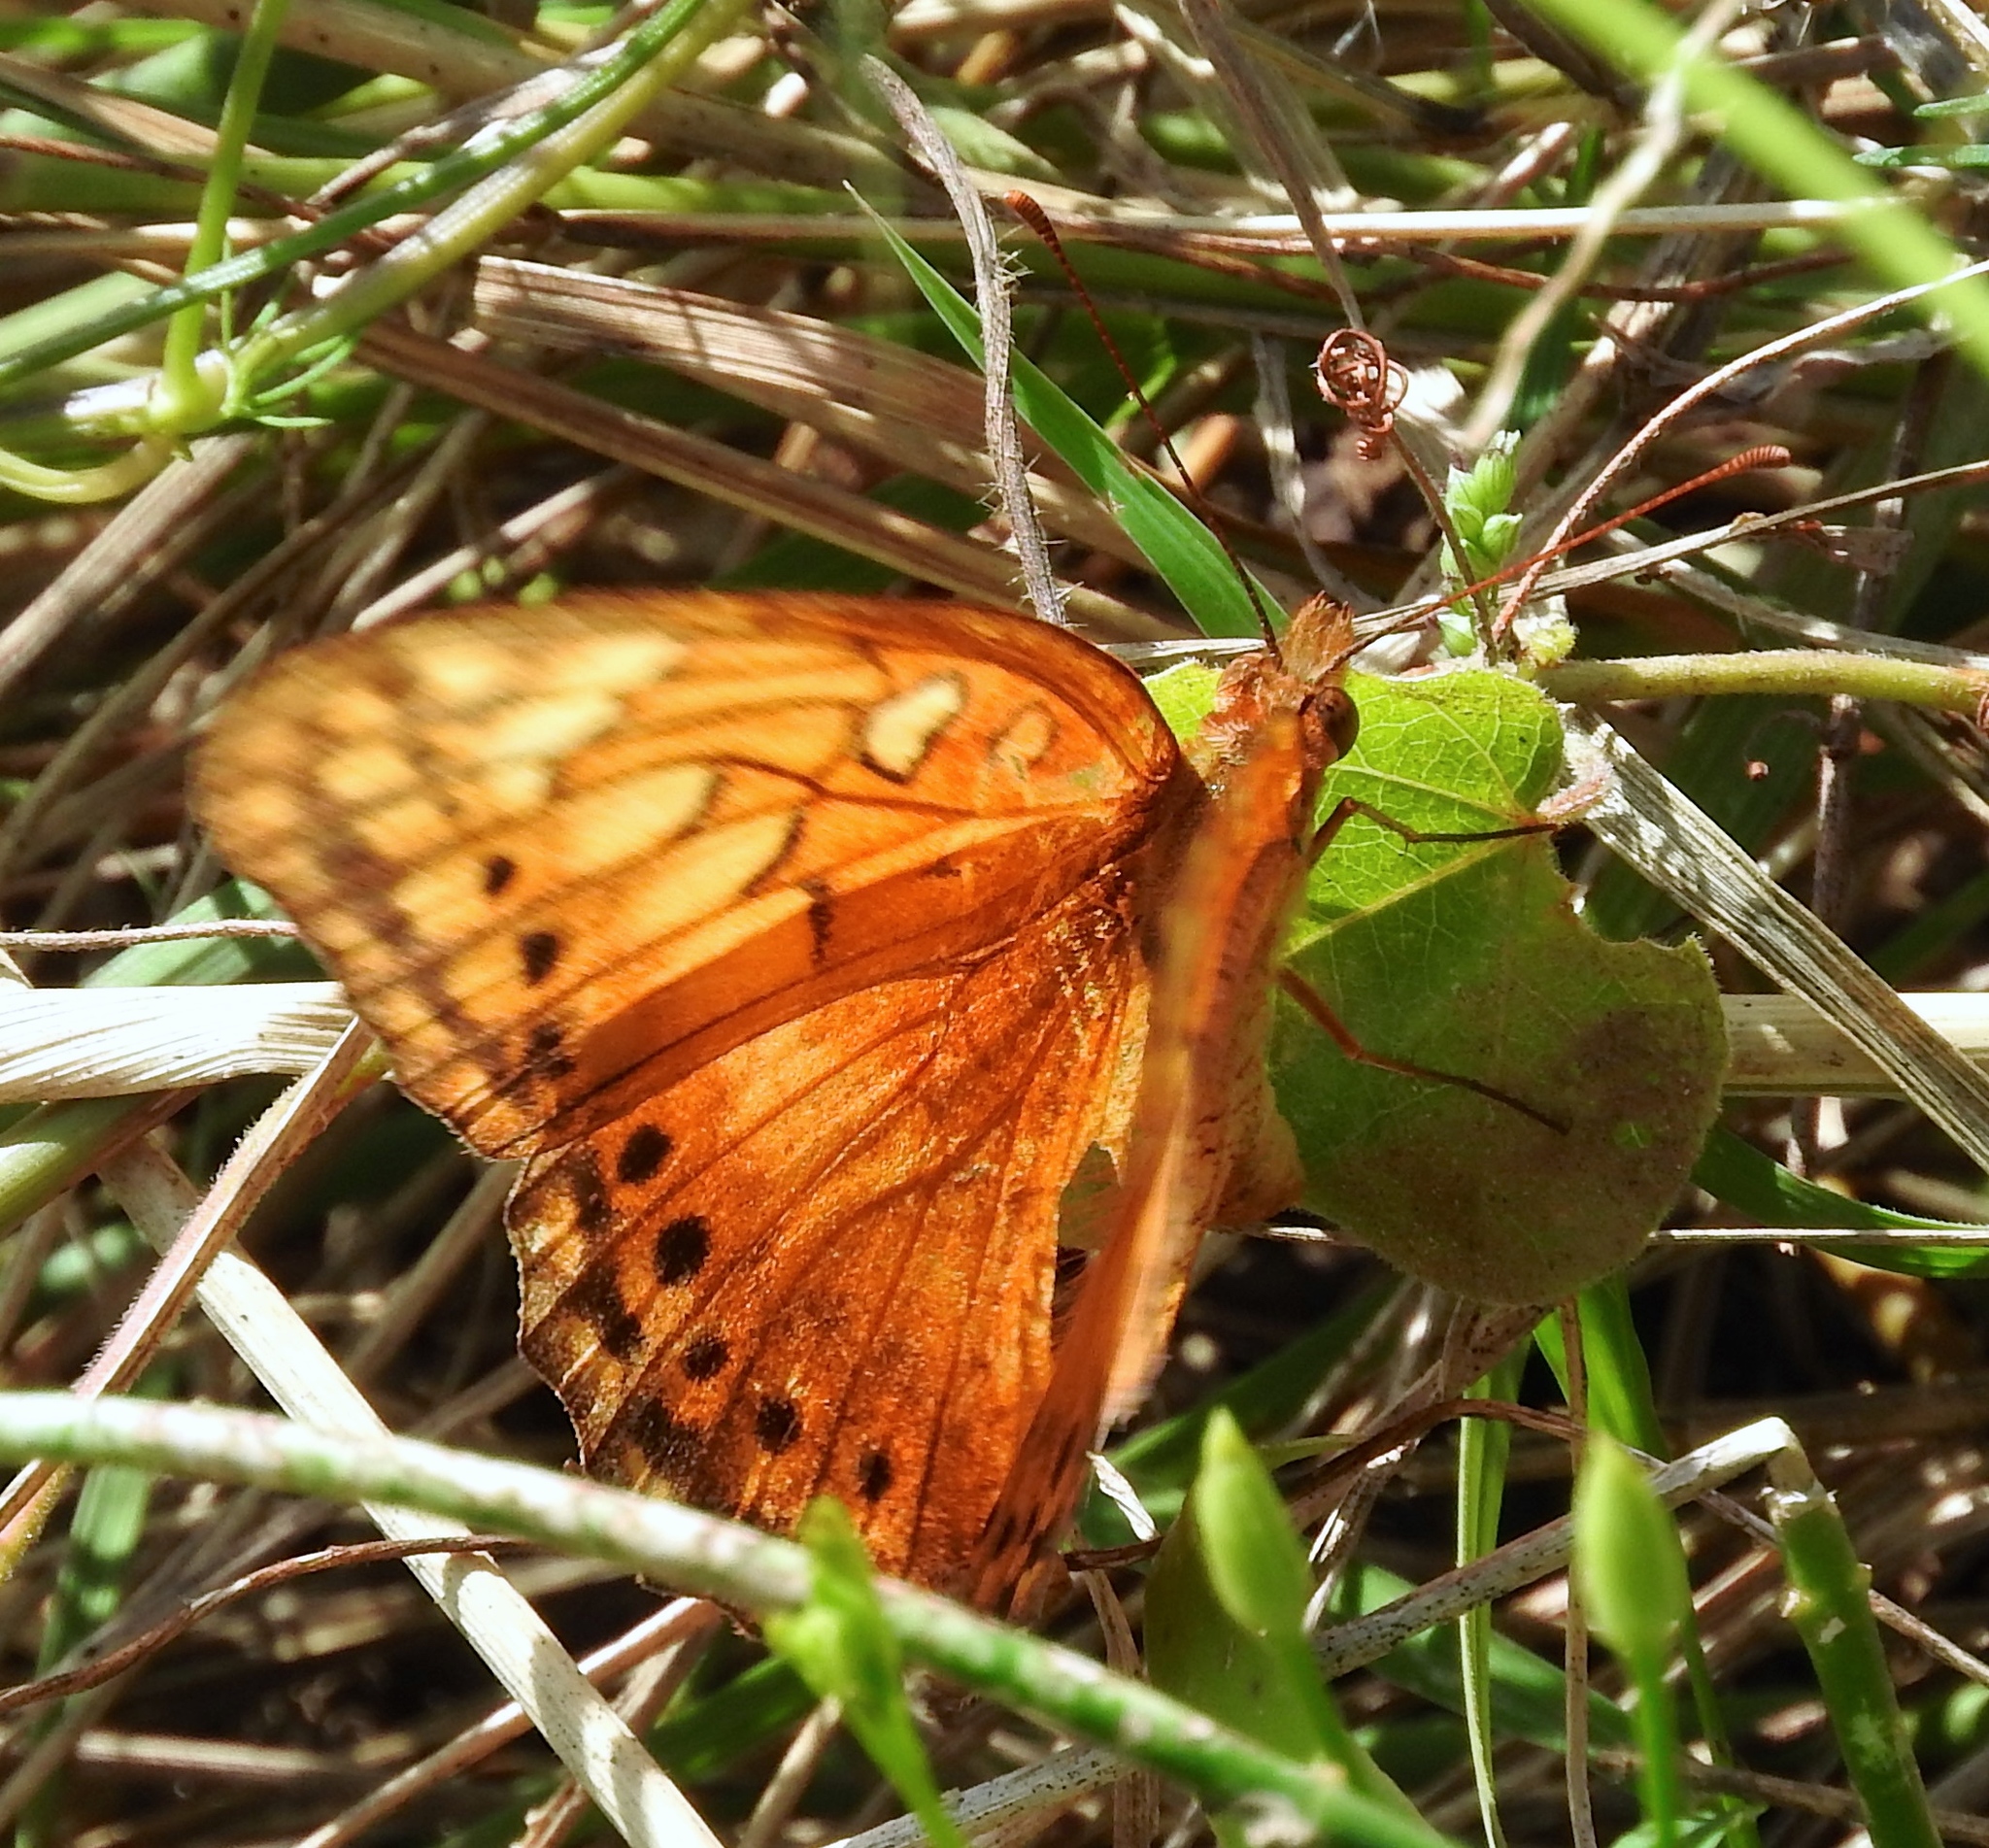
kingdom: Animalia
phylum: Arthropoda
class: Insecta
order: Lepidoptera
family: Nymphalidae
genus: Euptoieta
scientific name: Euptoieta hegesia
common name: Mexican fritillary
